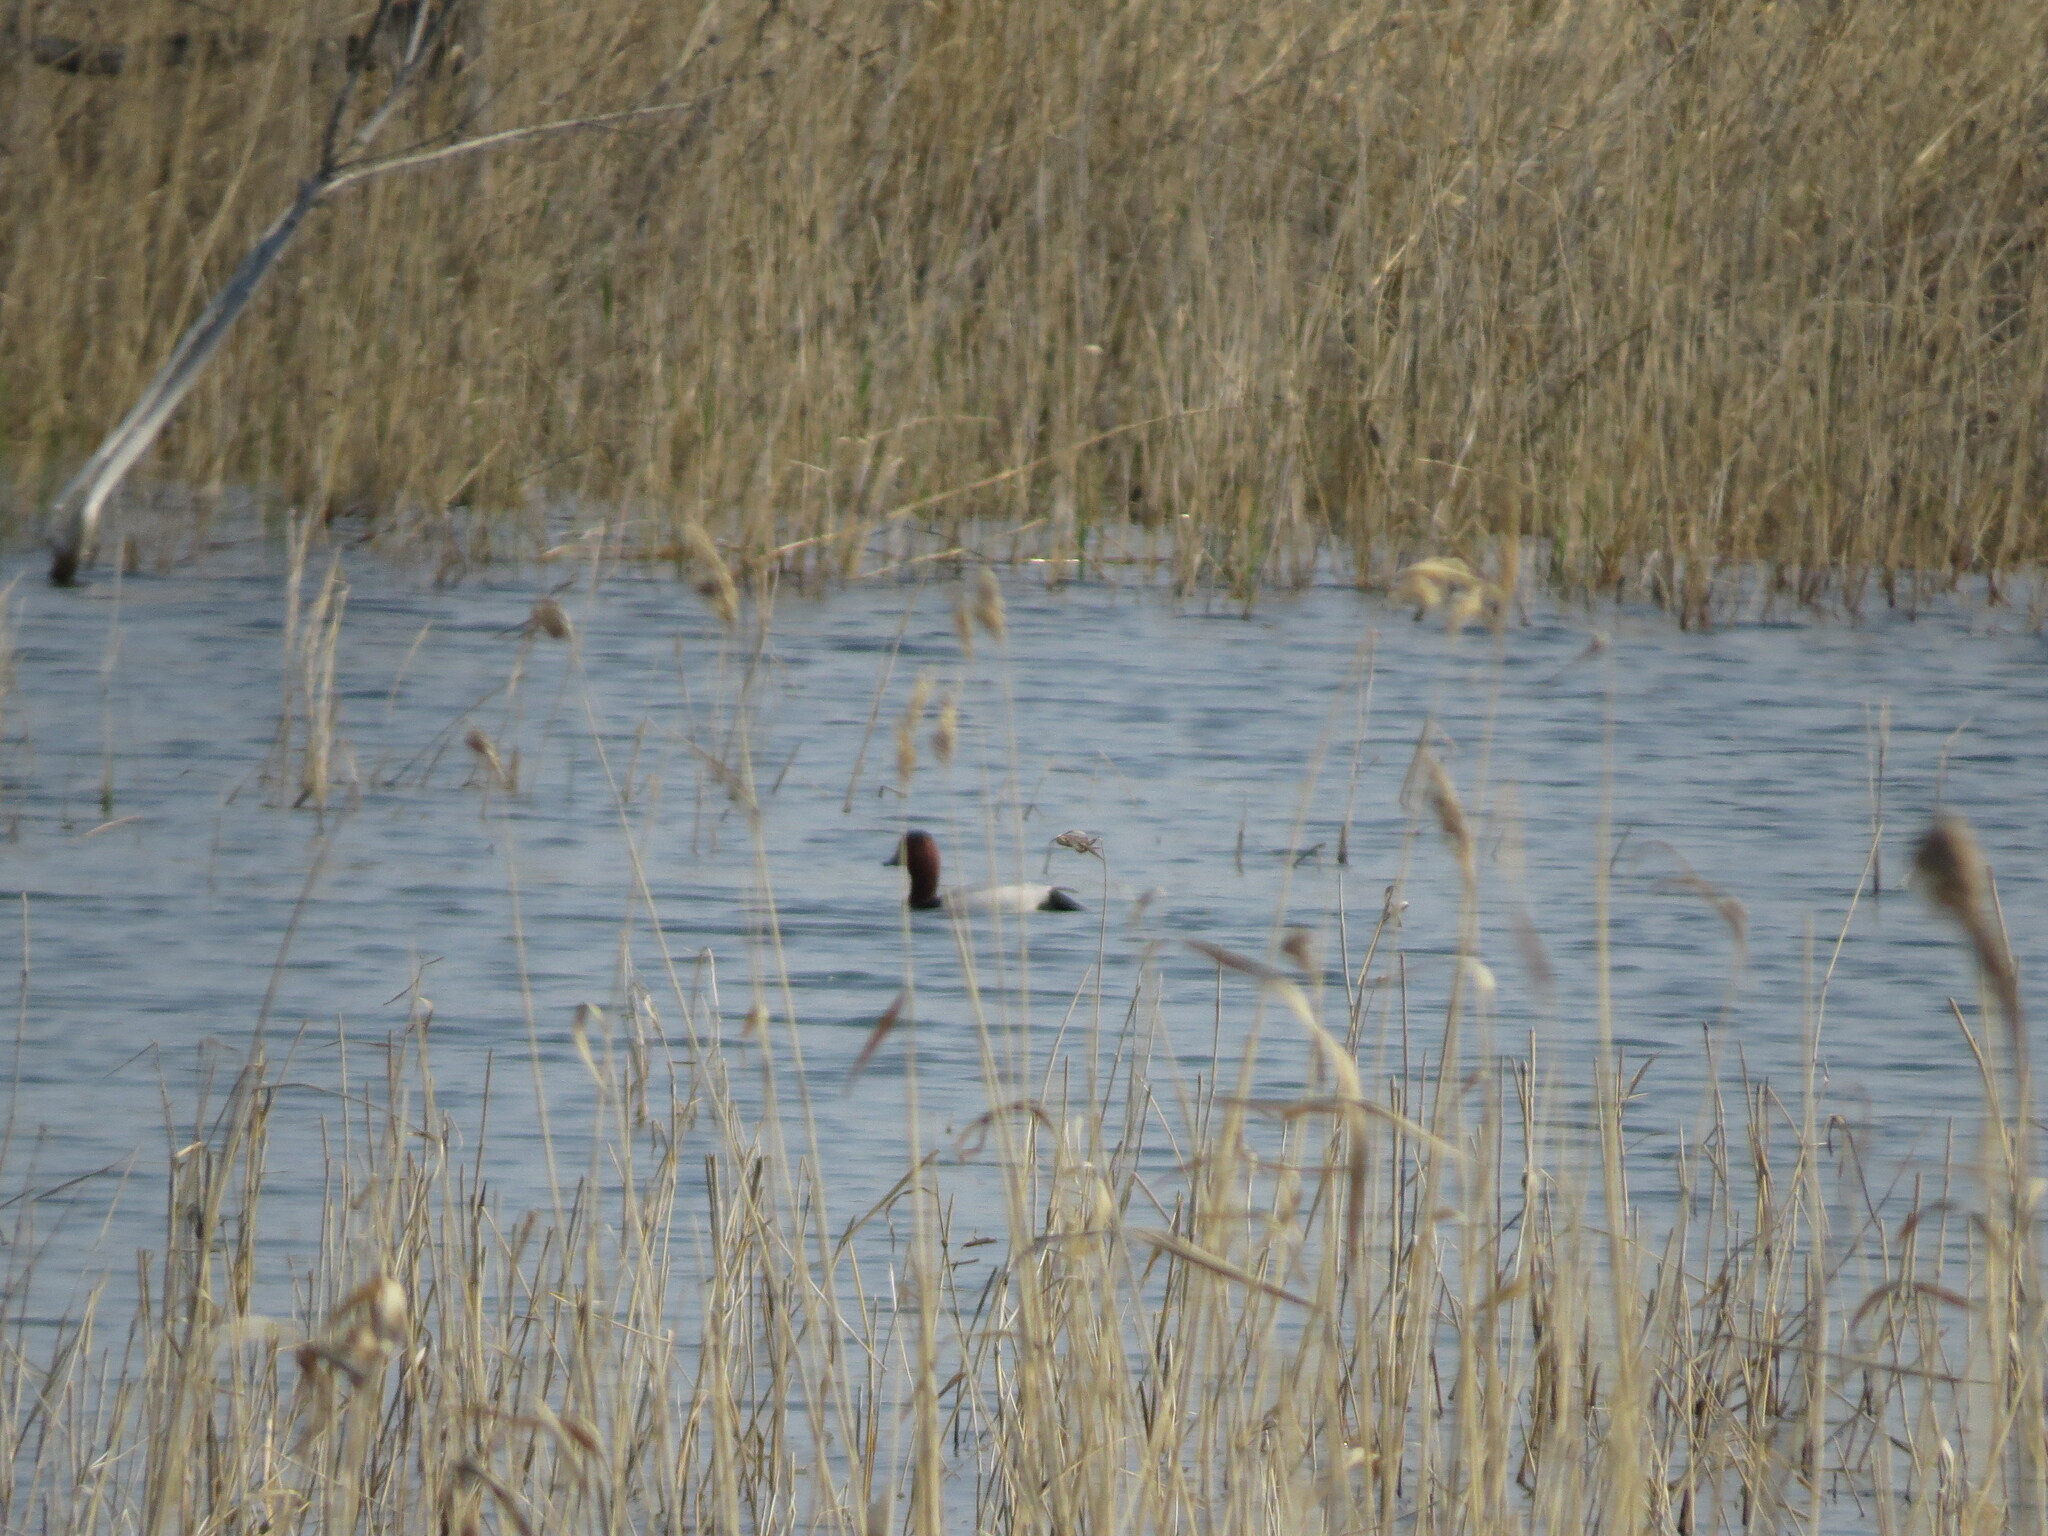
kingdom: Animalia
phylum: Chordata
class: Aves
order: Anseriformes
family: Anatidae
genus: Aythya
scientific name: Aythya ferina
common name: Common pochard
